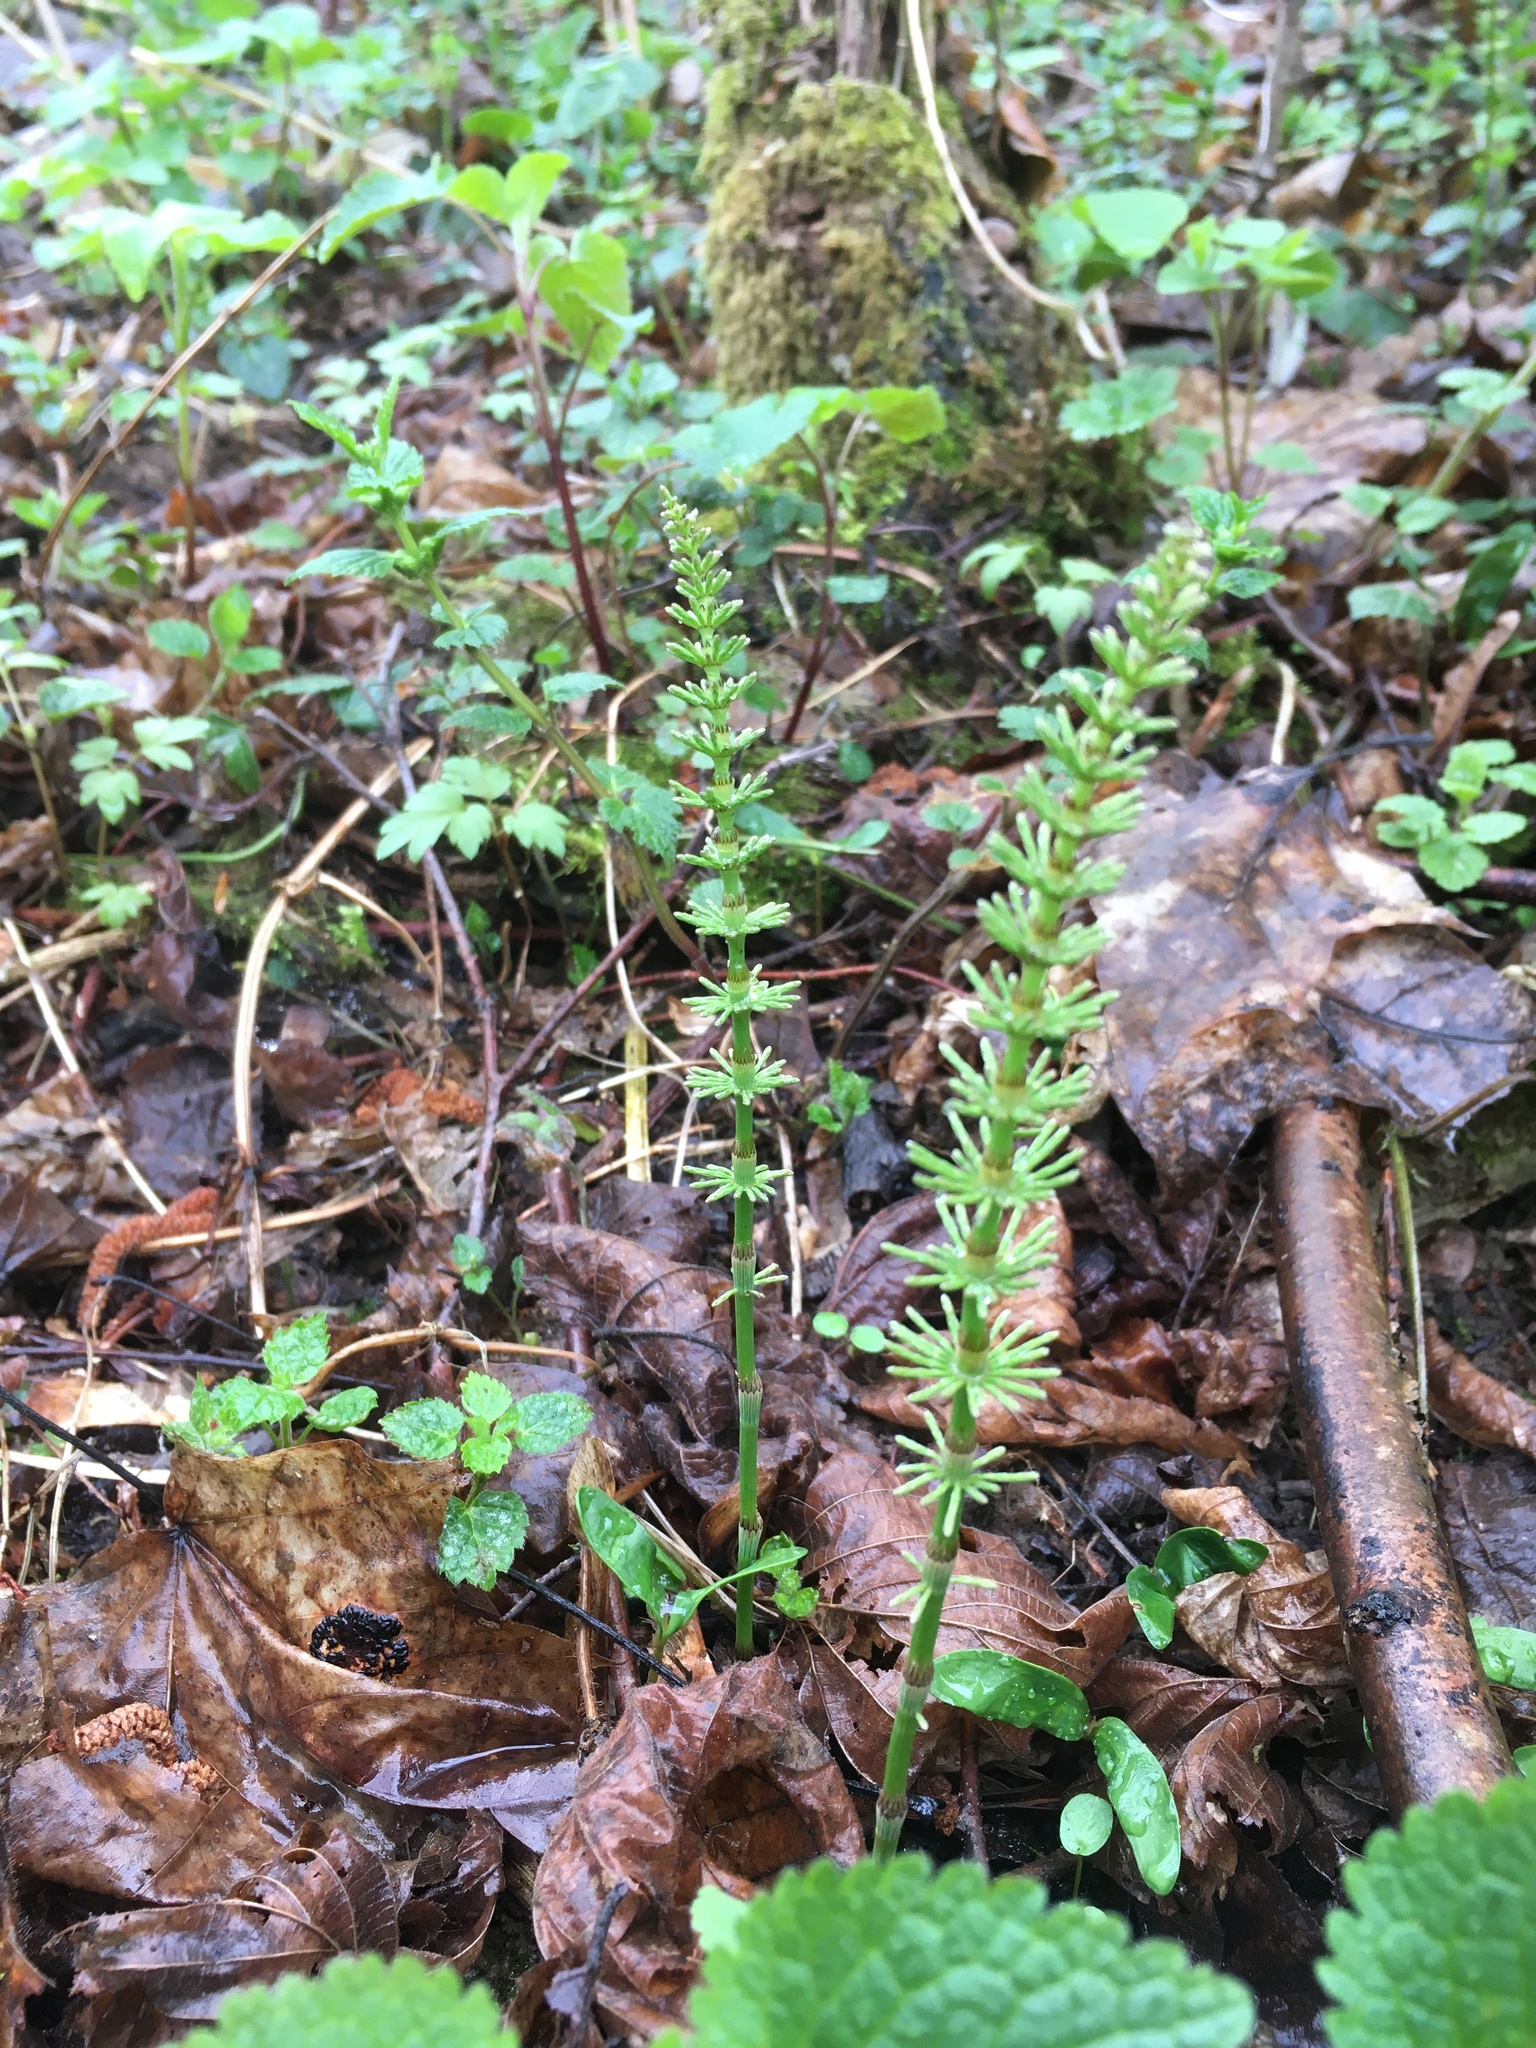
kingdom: Plantae
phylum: Tracheophyta
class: Polypodiopsida
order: Equisetales
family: Equisetaceae
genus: Equisetum
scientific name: Equisetum pratense
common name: Meadow horsetail
